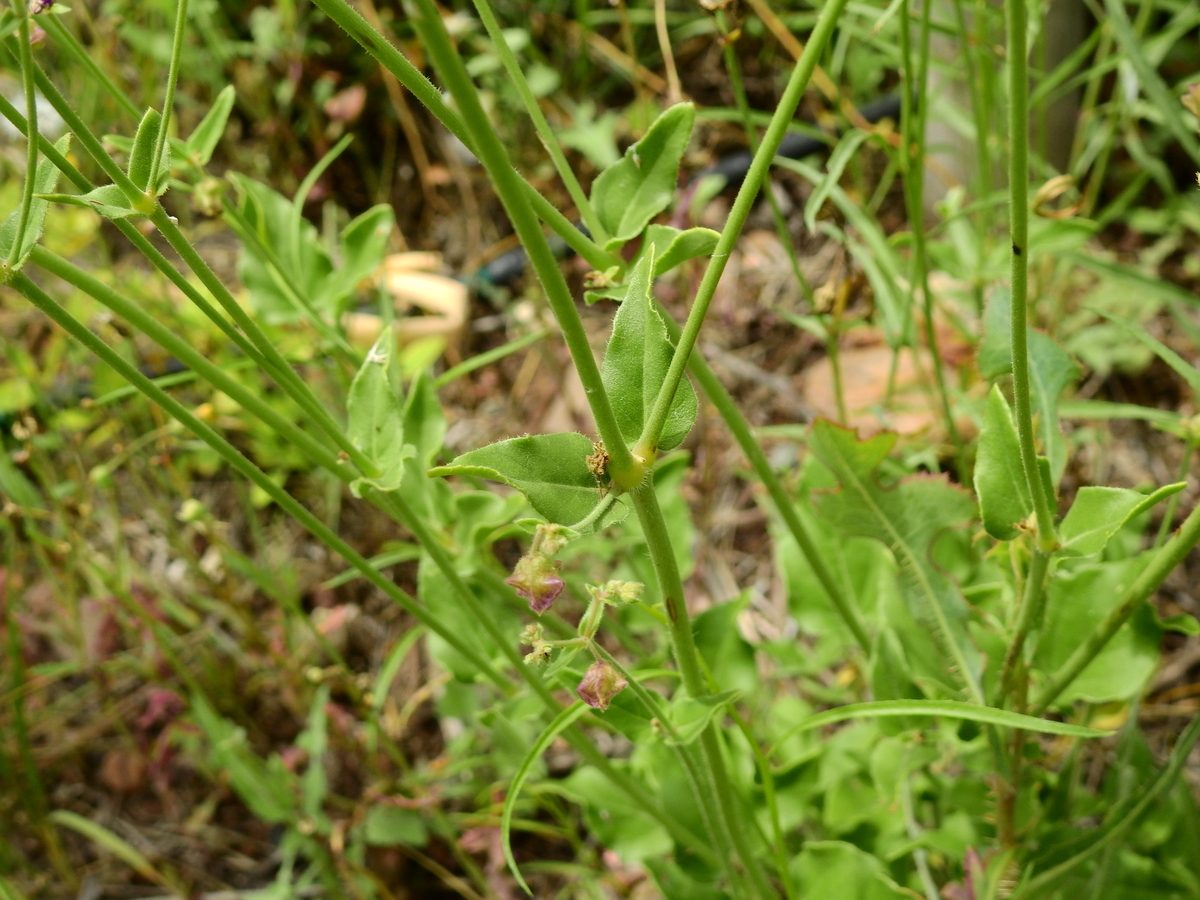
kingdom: Plantae
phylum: Tracheophyta
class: Magnoliopsida
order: Caryophyllales
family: Nyctaginaceae
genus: Mirabilis
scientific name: Mirabilis ovata
